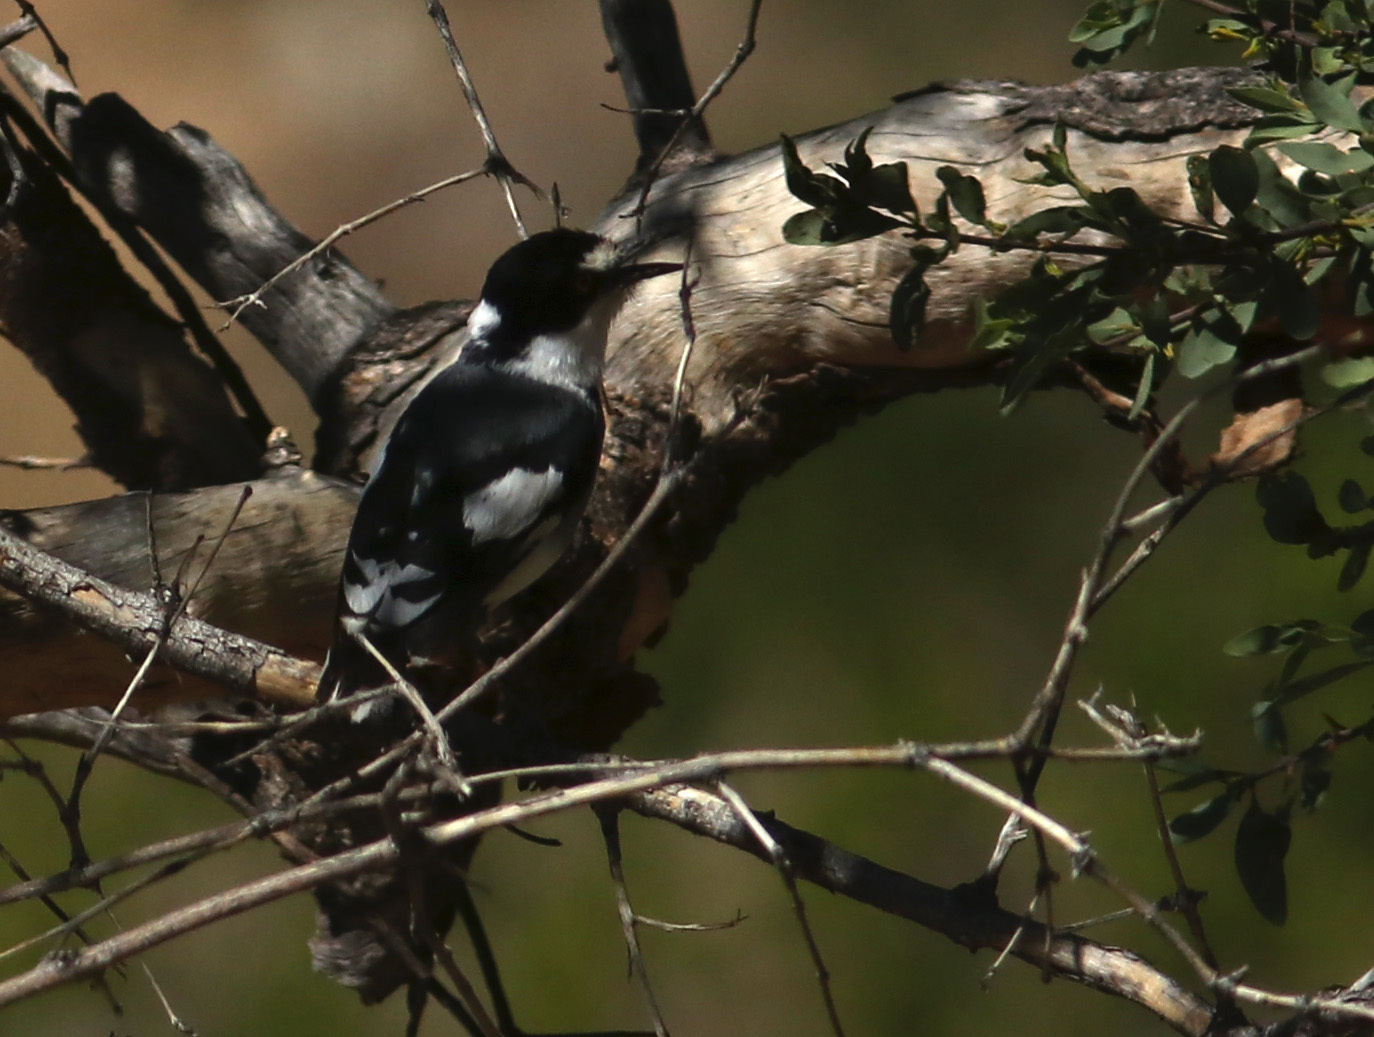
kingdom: Animalia
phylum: Chordata
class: Aves
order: Passeriformes
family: Platysteiridae
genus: Lanioturdus
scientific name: Lanioturdus torquatus
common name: White-tailed shrike
